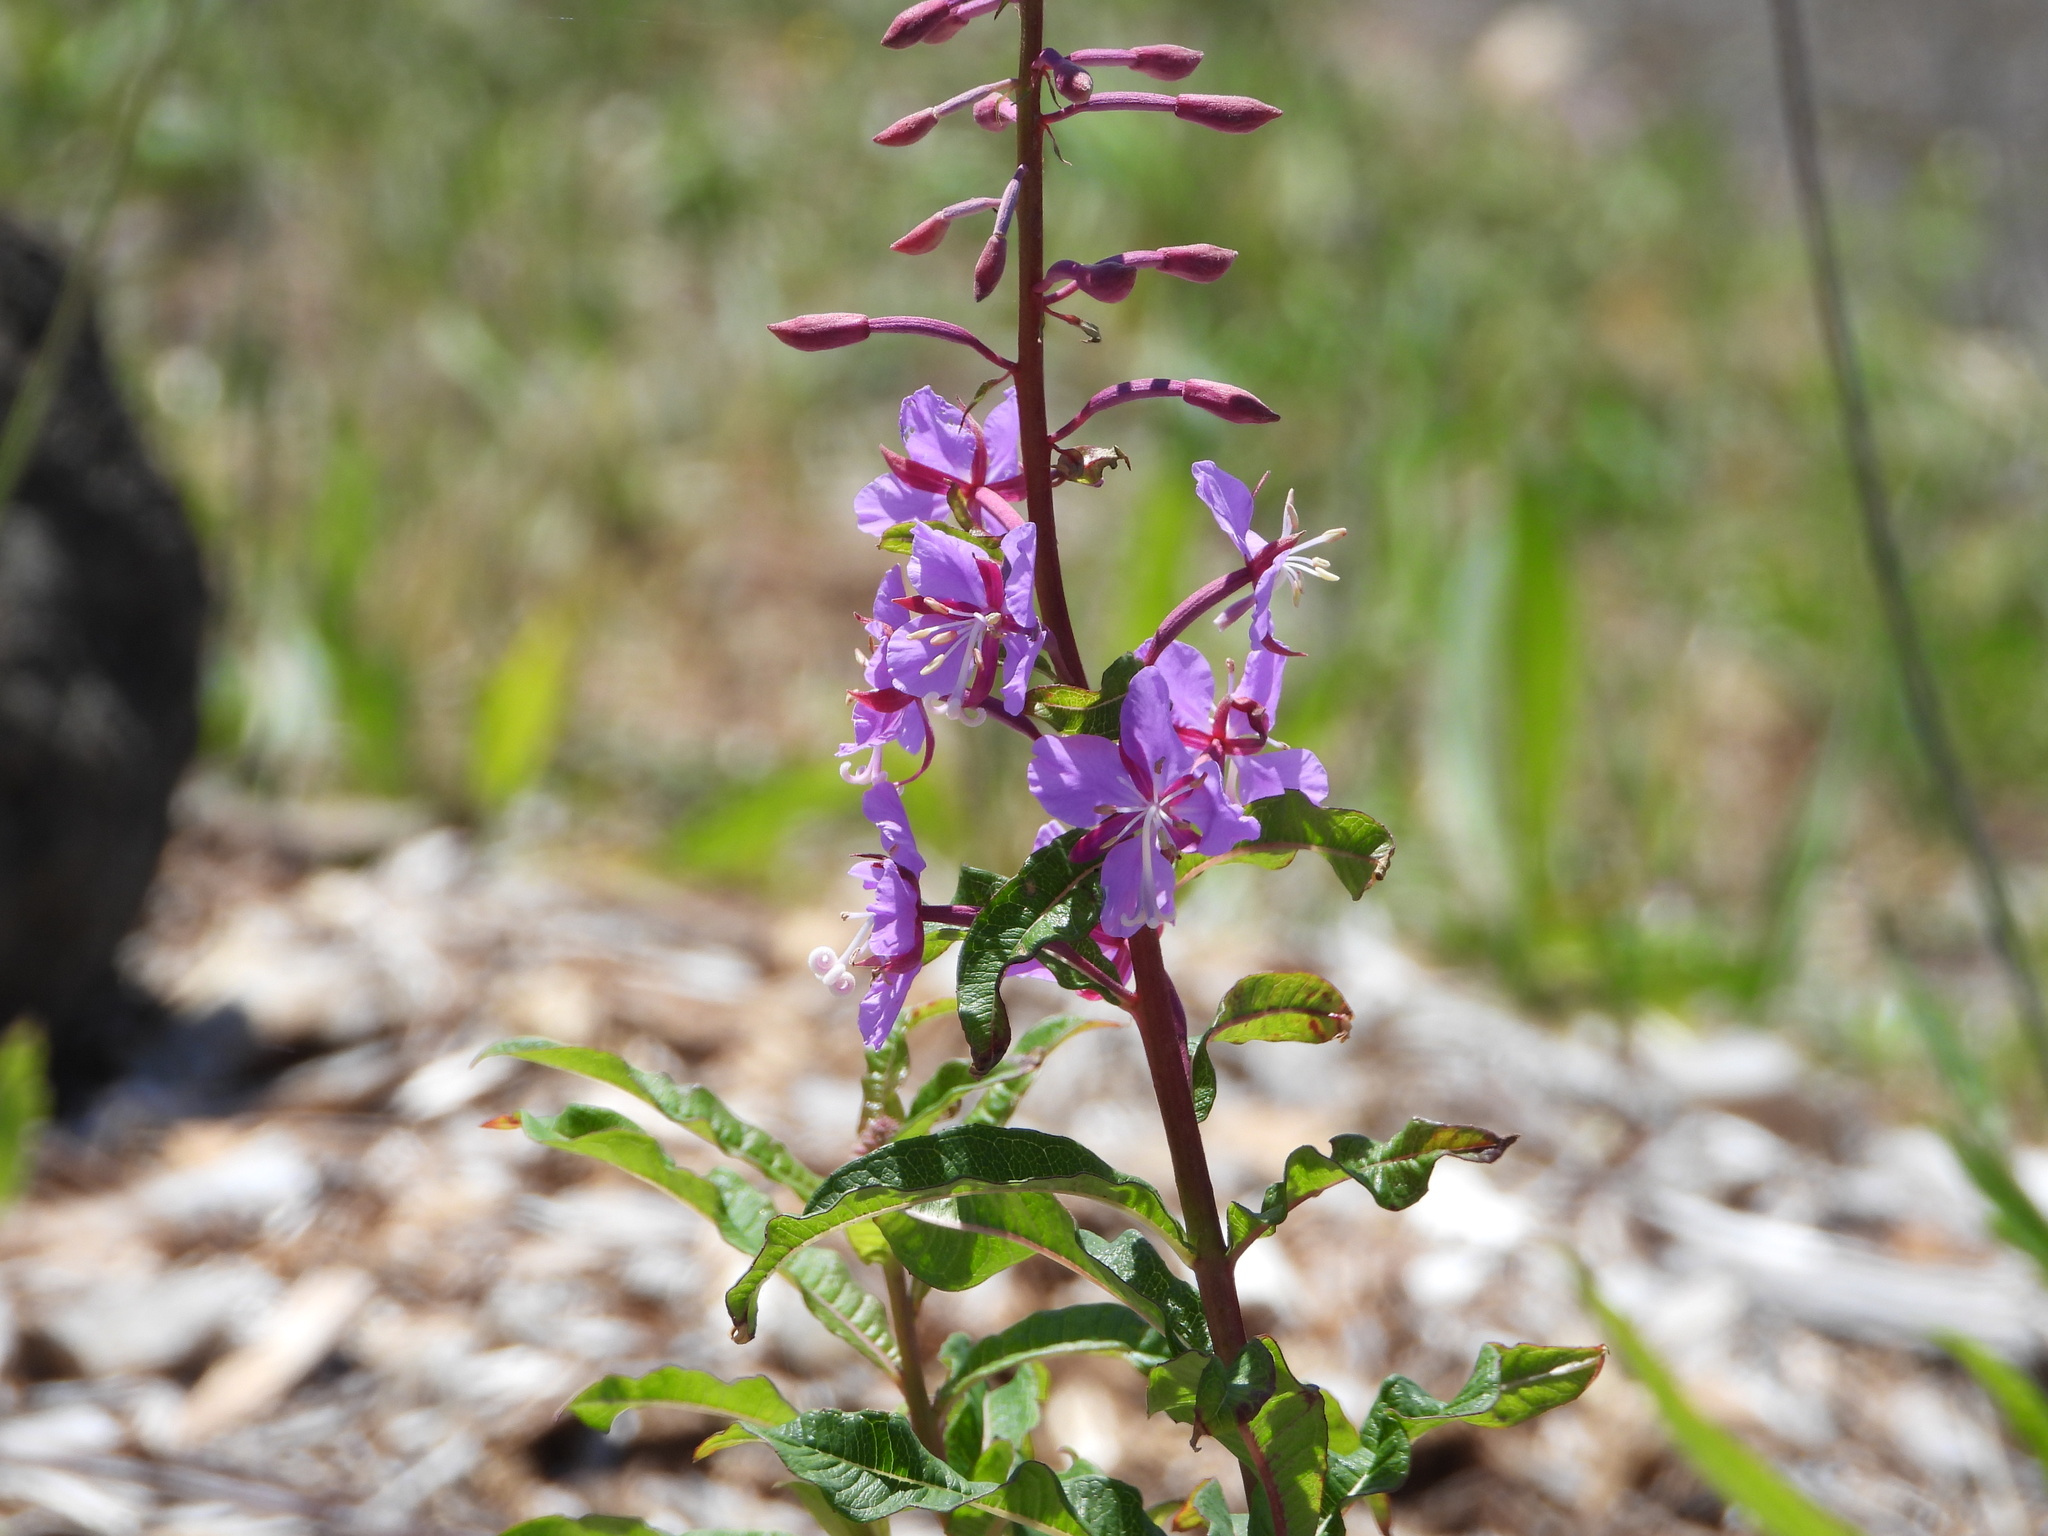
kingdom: Plantae
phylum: Tracheophyta
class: Magnoliopsida
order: Myrtales
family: Onagraceae
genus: Chamaenerion
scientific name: Chamaenerion angustifolium
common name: Fireweed
